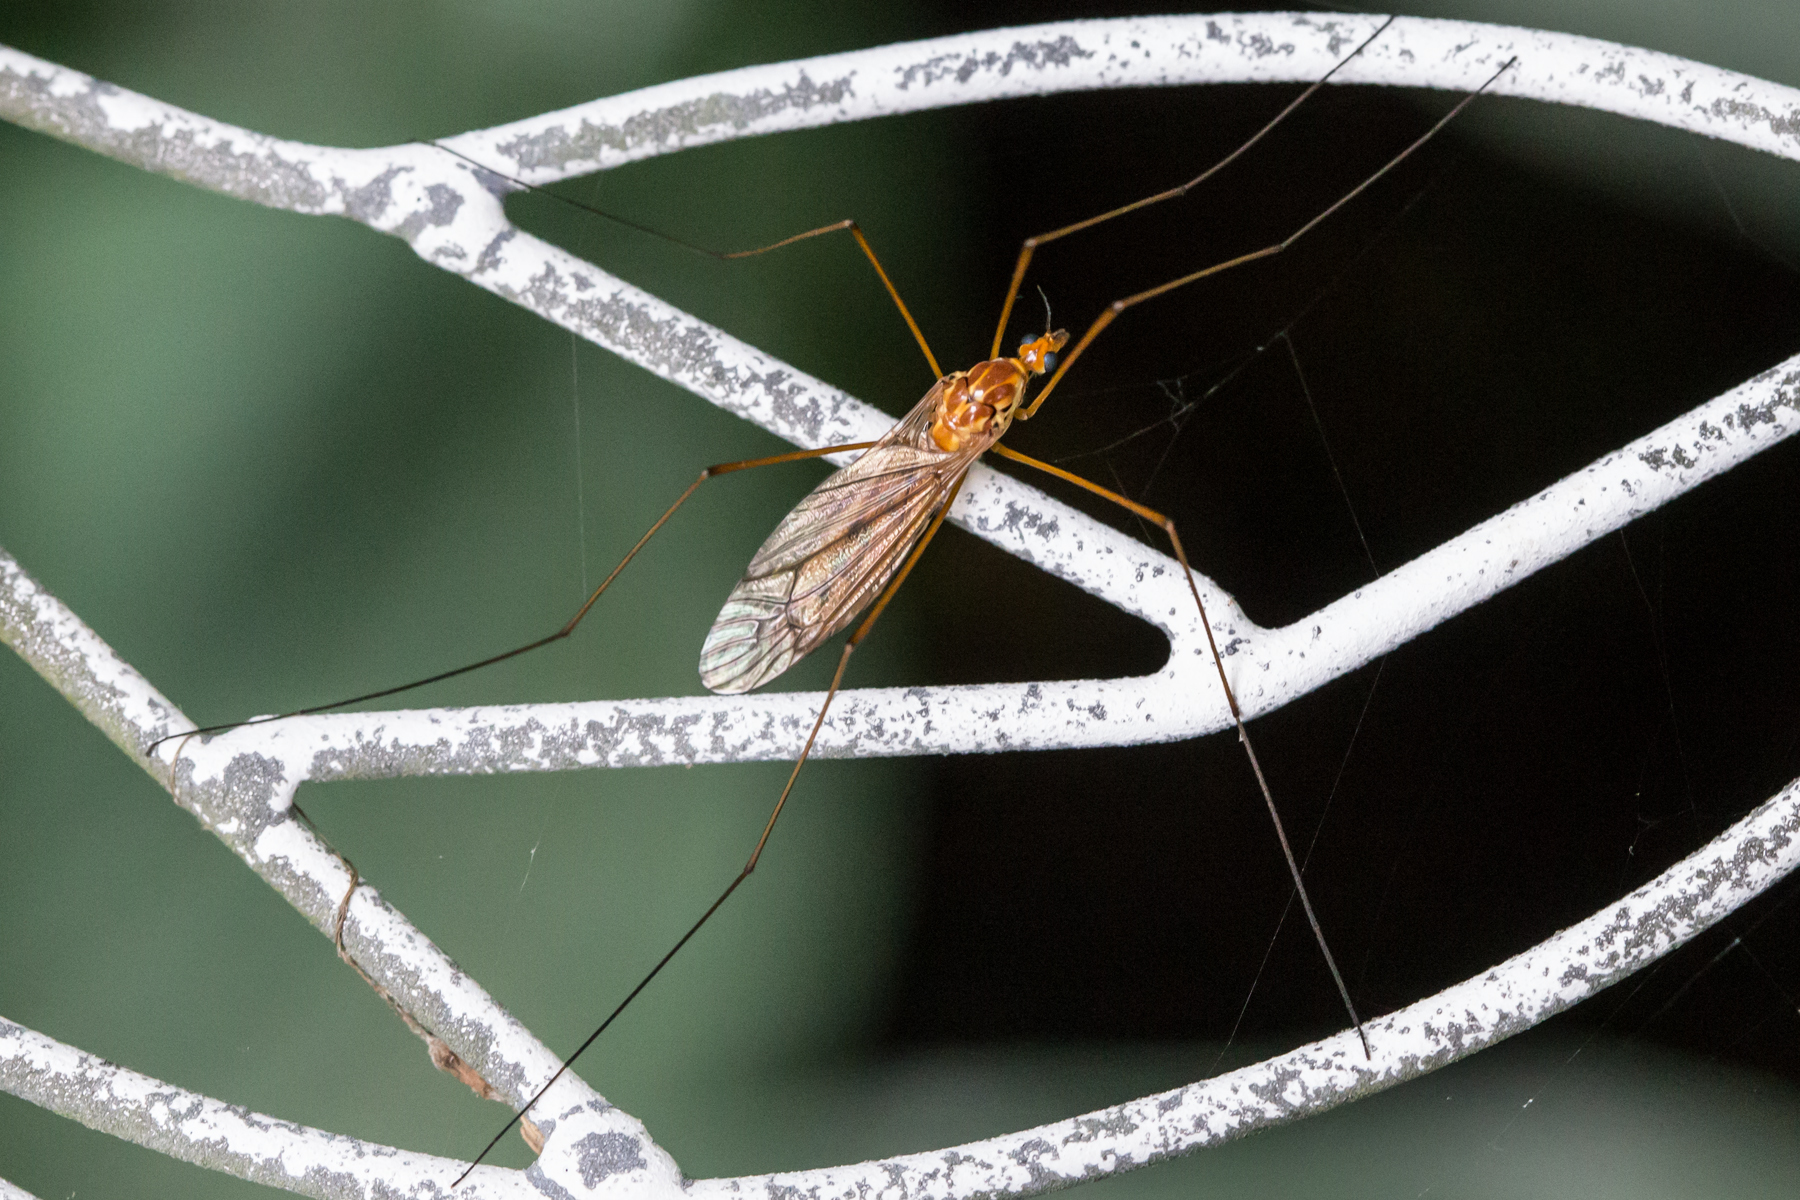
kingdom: Animalia
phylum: Arthropoda
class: Insecta
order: Diptera
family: Tipulidae
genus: Nephrotoma
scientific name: Nephrotoma ferruginea
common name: Ferruginous tiger crane fly
